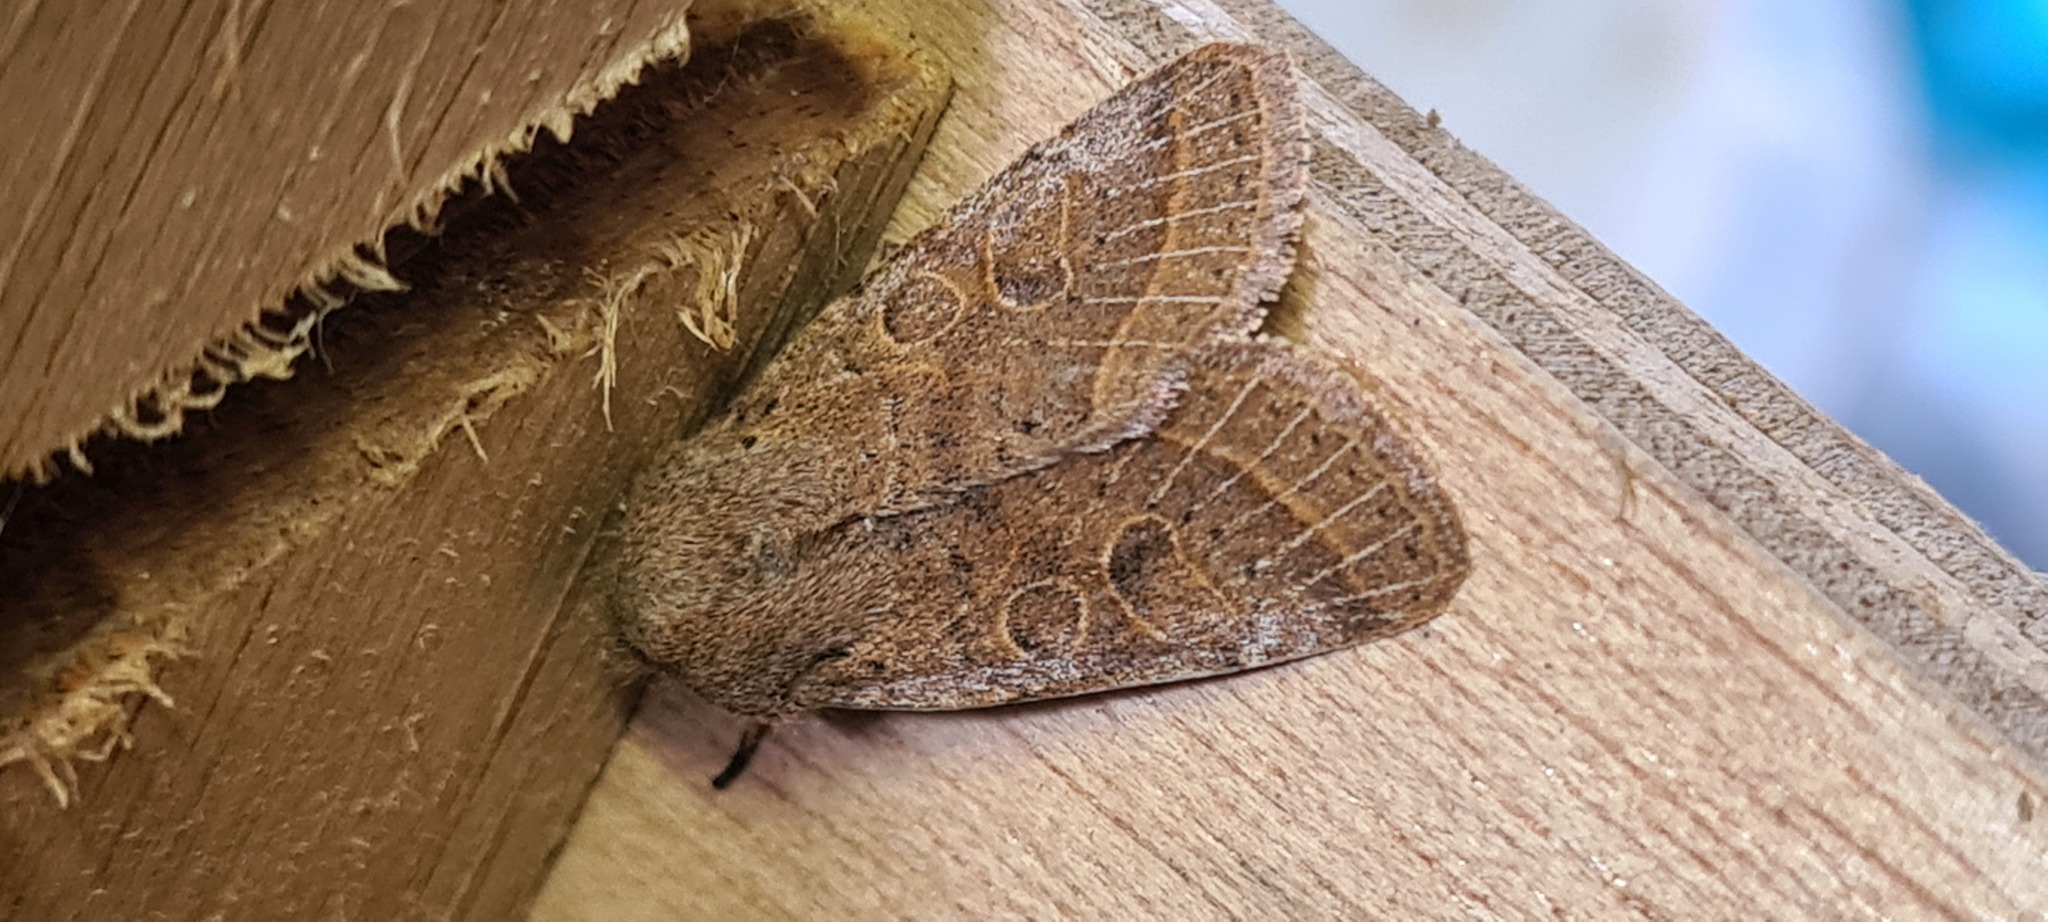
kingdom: Animalia
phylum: Arthropoda
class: Insecta
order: Lepidoptera
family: Noctuidae
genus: Orthosia
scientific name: Orthosia cerasi
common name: Common quaker
